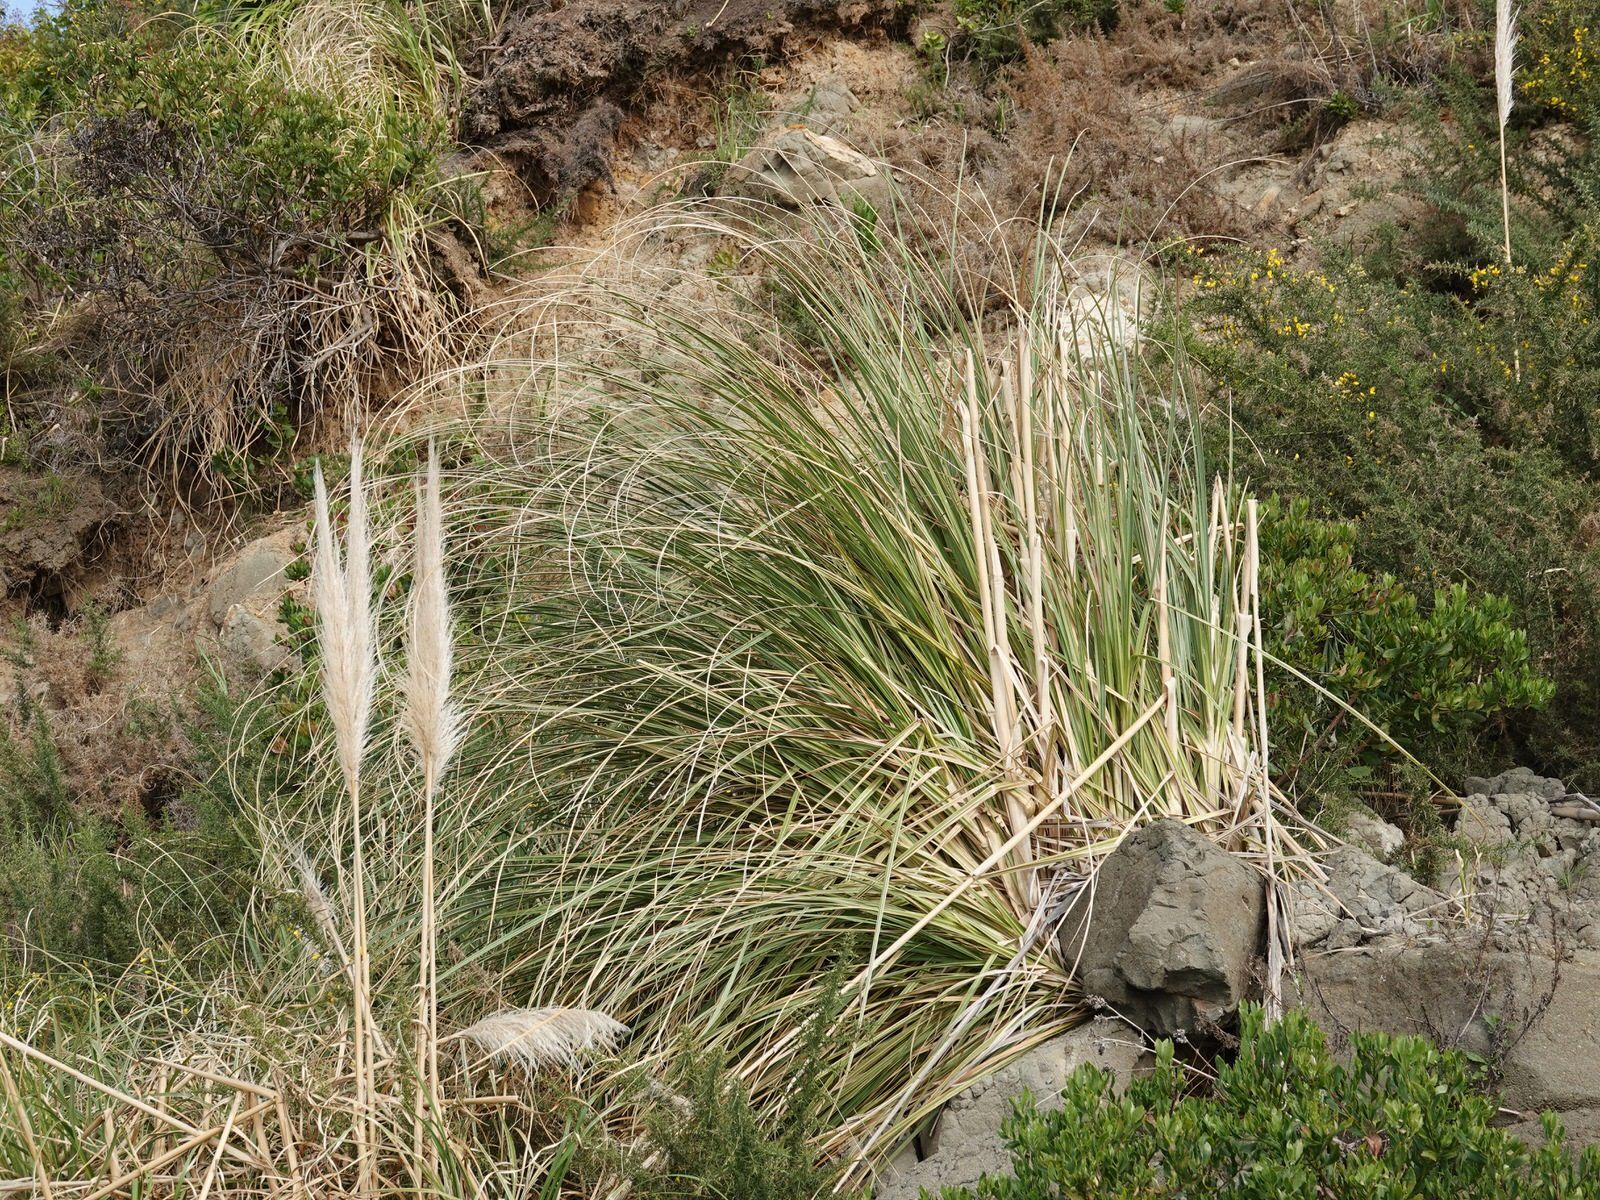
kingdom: Plantae
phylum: Tracheophyta
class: Liliopsida
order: Poales
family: Poaceae
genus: Cortaderia
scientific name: Cortaderia selloana
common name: Uruguayan pampas grass
